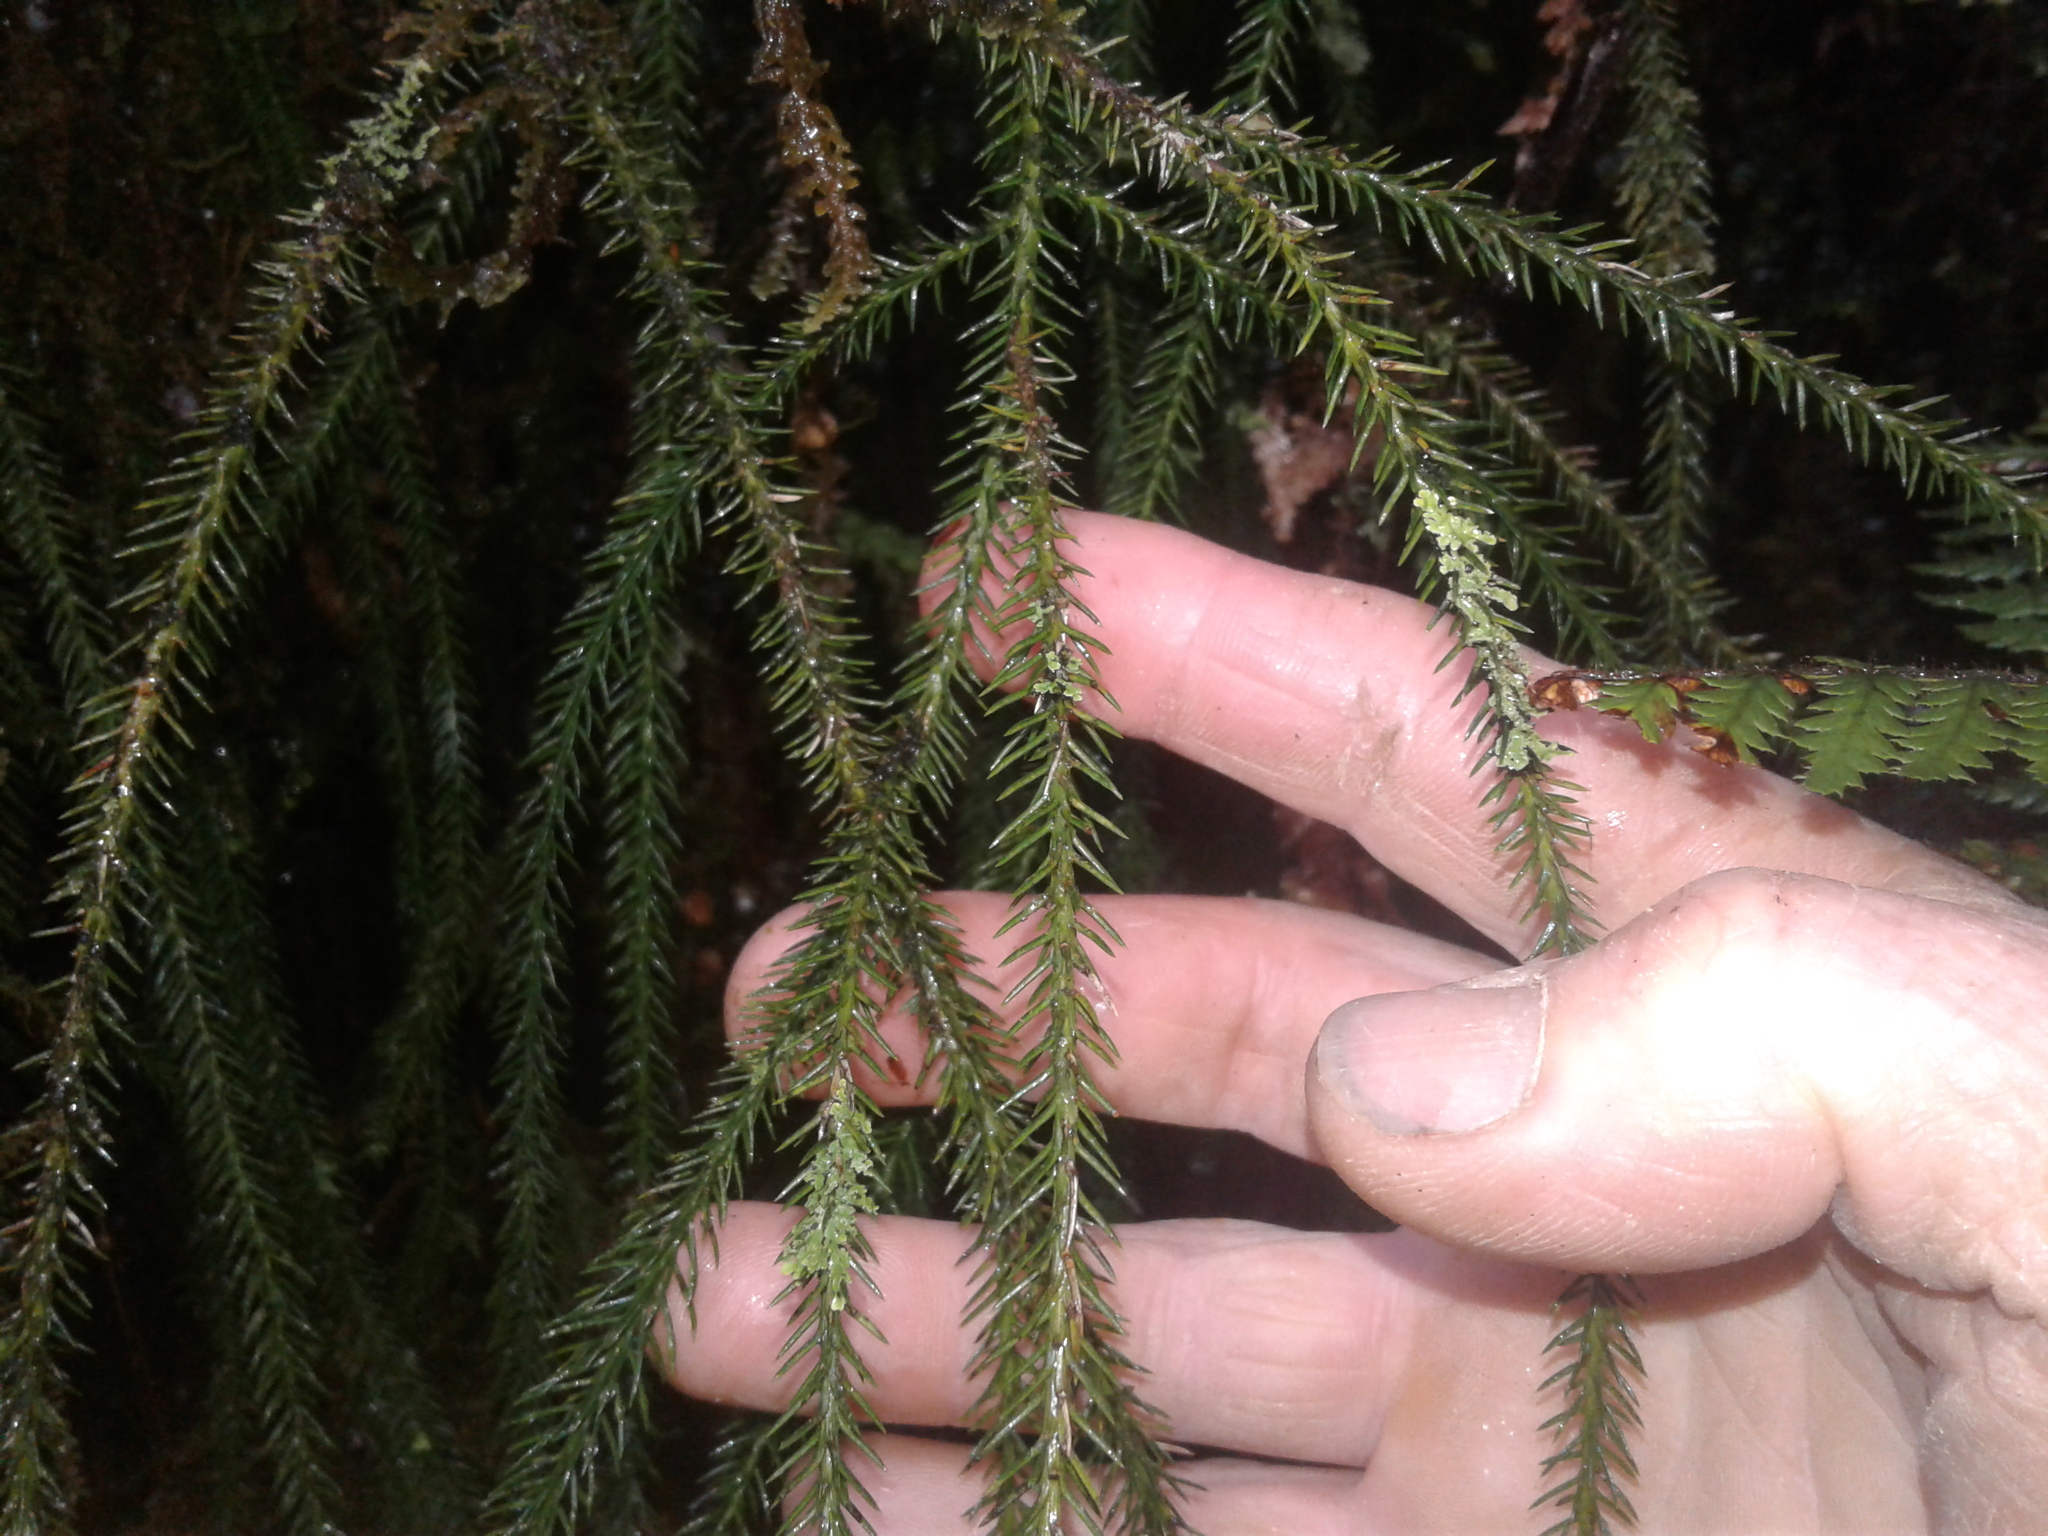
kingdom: Plantae
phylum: Tracheophyta
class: Pinopsida
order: Pinales
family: Podocarpaceae
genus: Dacrydium
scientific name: Dacrydium cupressinum
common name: Red pine
